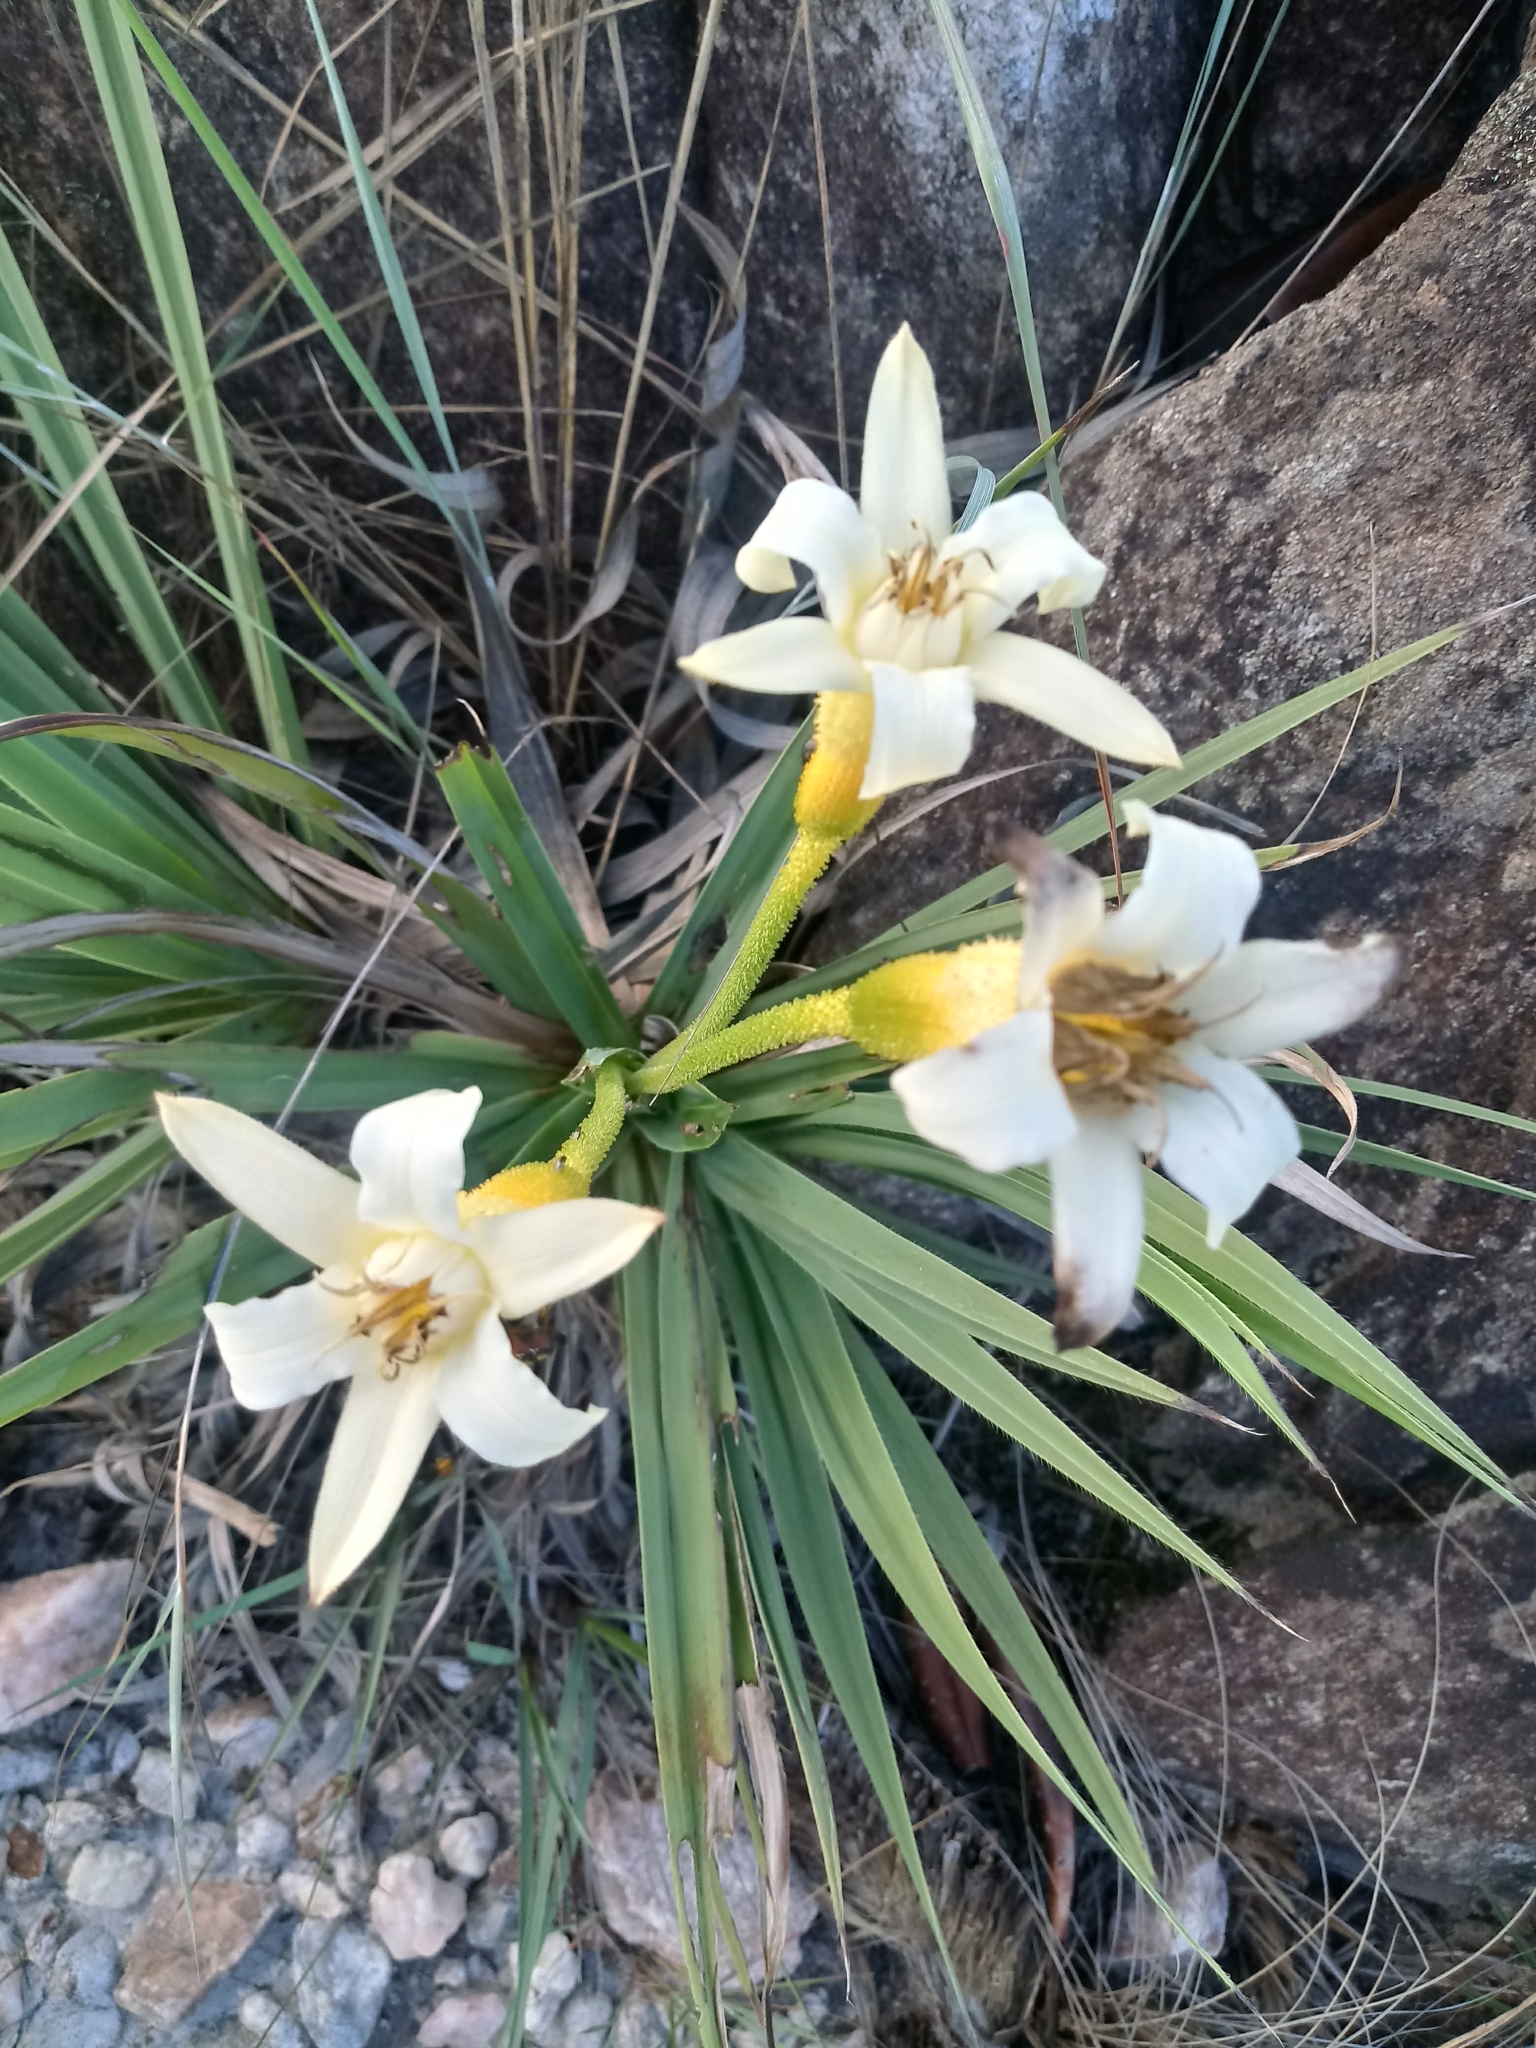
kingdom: Plantae
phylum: Tracheophyta
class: Liliopsida
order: Pandanales
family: Velloziaceae
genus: Barbacenia
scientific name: Barbacenia itabirensis
